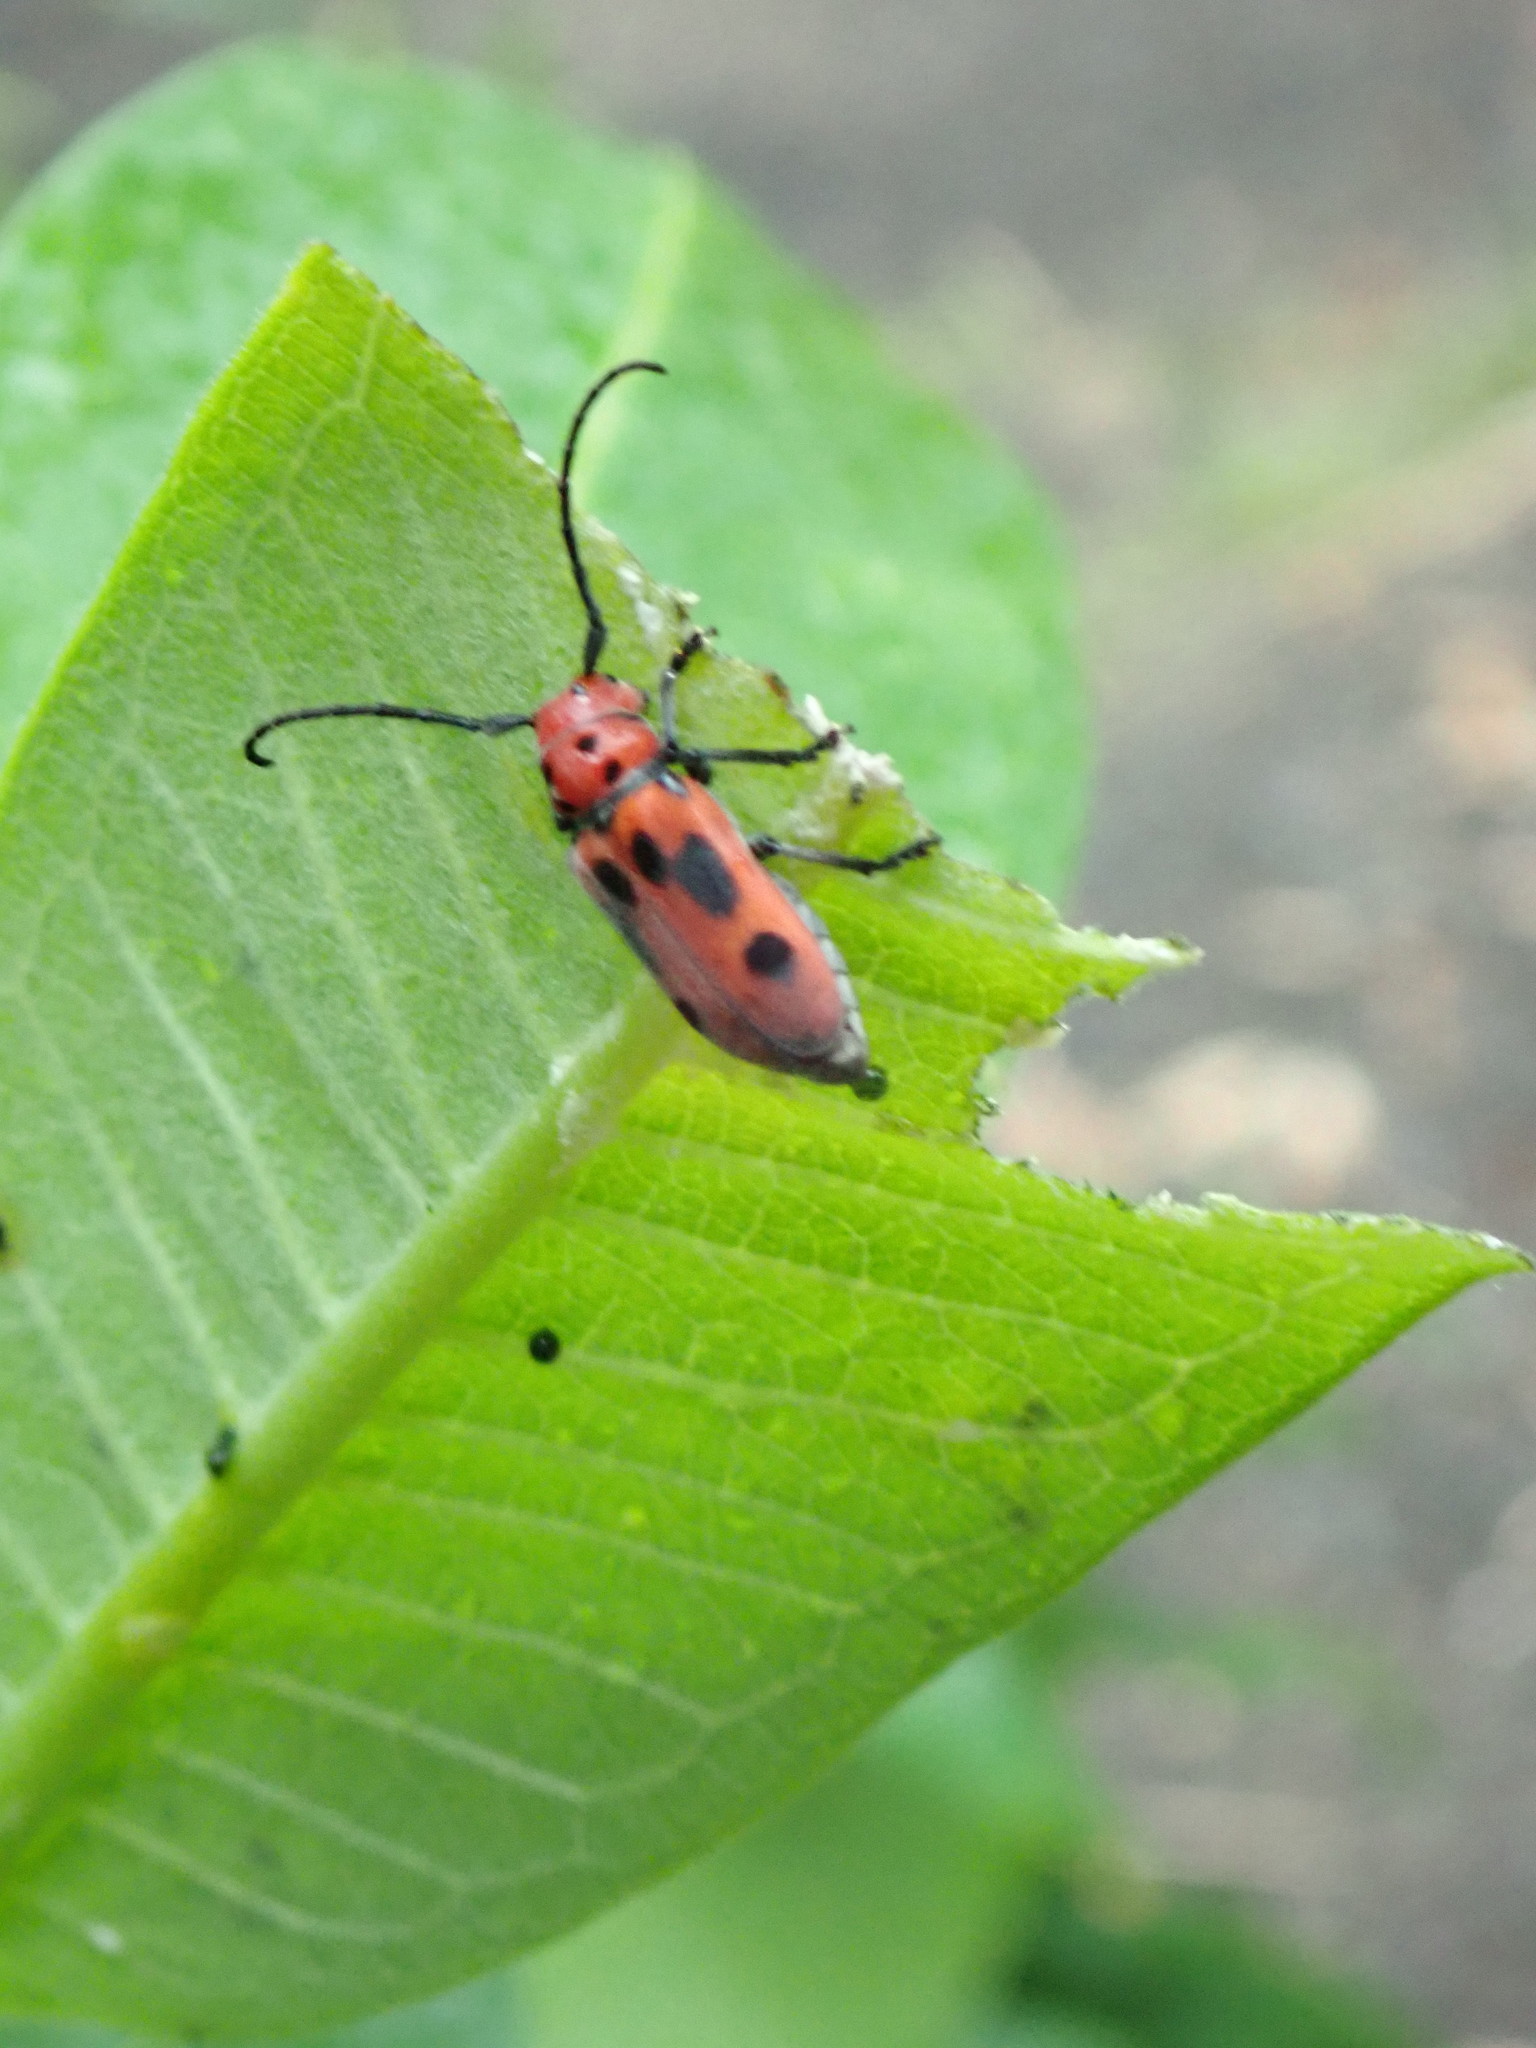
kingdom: Animalia
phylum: Arthropoda
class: Insecta
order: Coleoptera
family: Cerambycidae
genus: Tetraopes
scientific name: Tetraopes tetrophthalmus
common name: Red milkweed beetle
